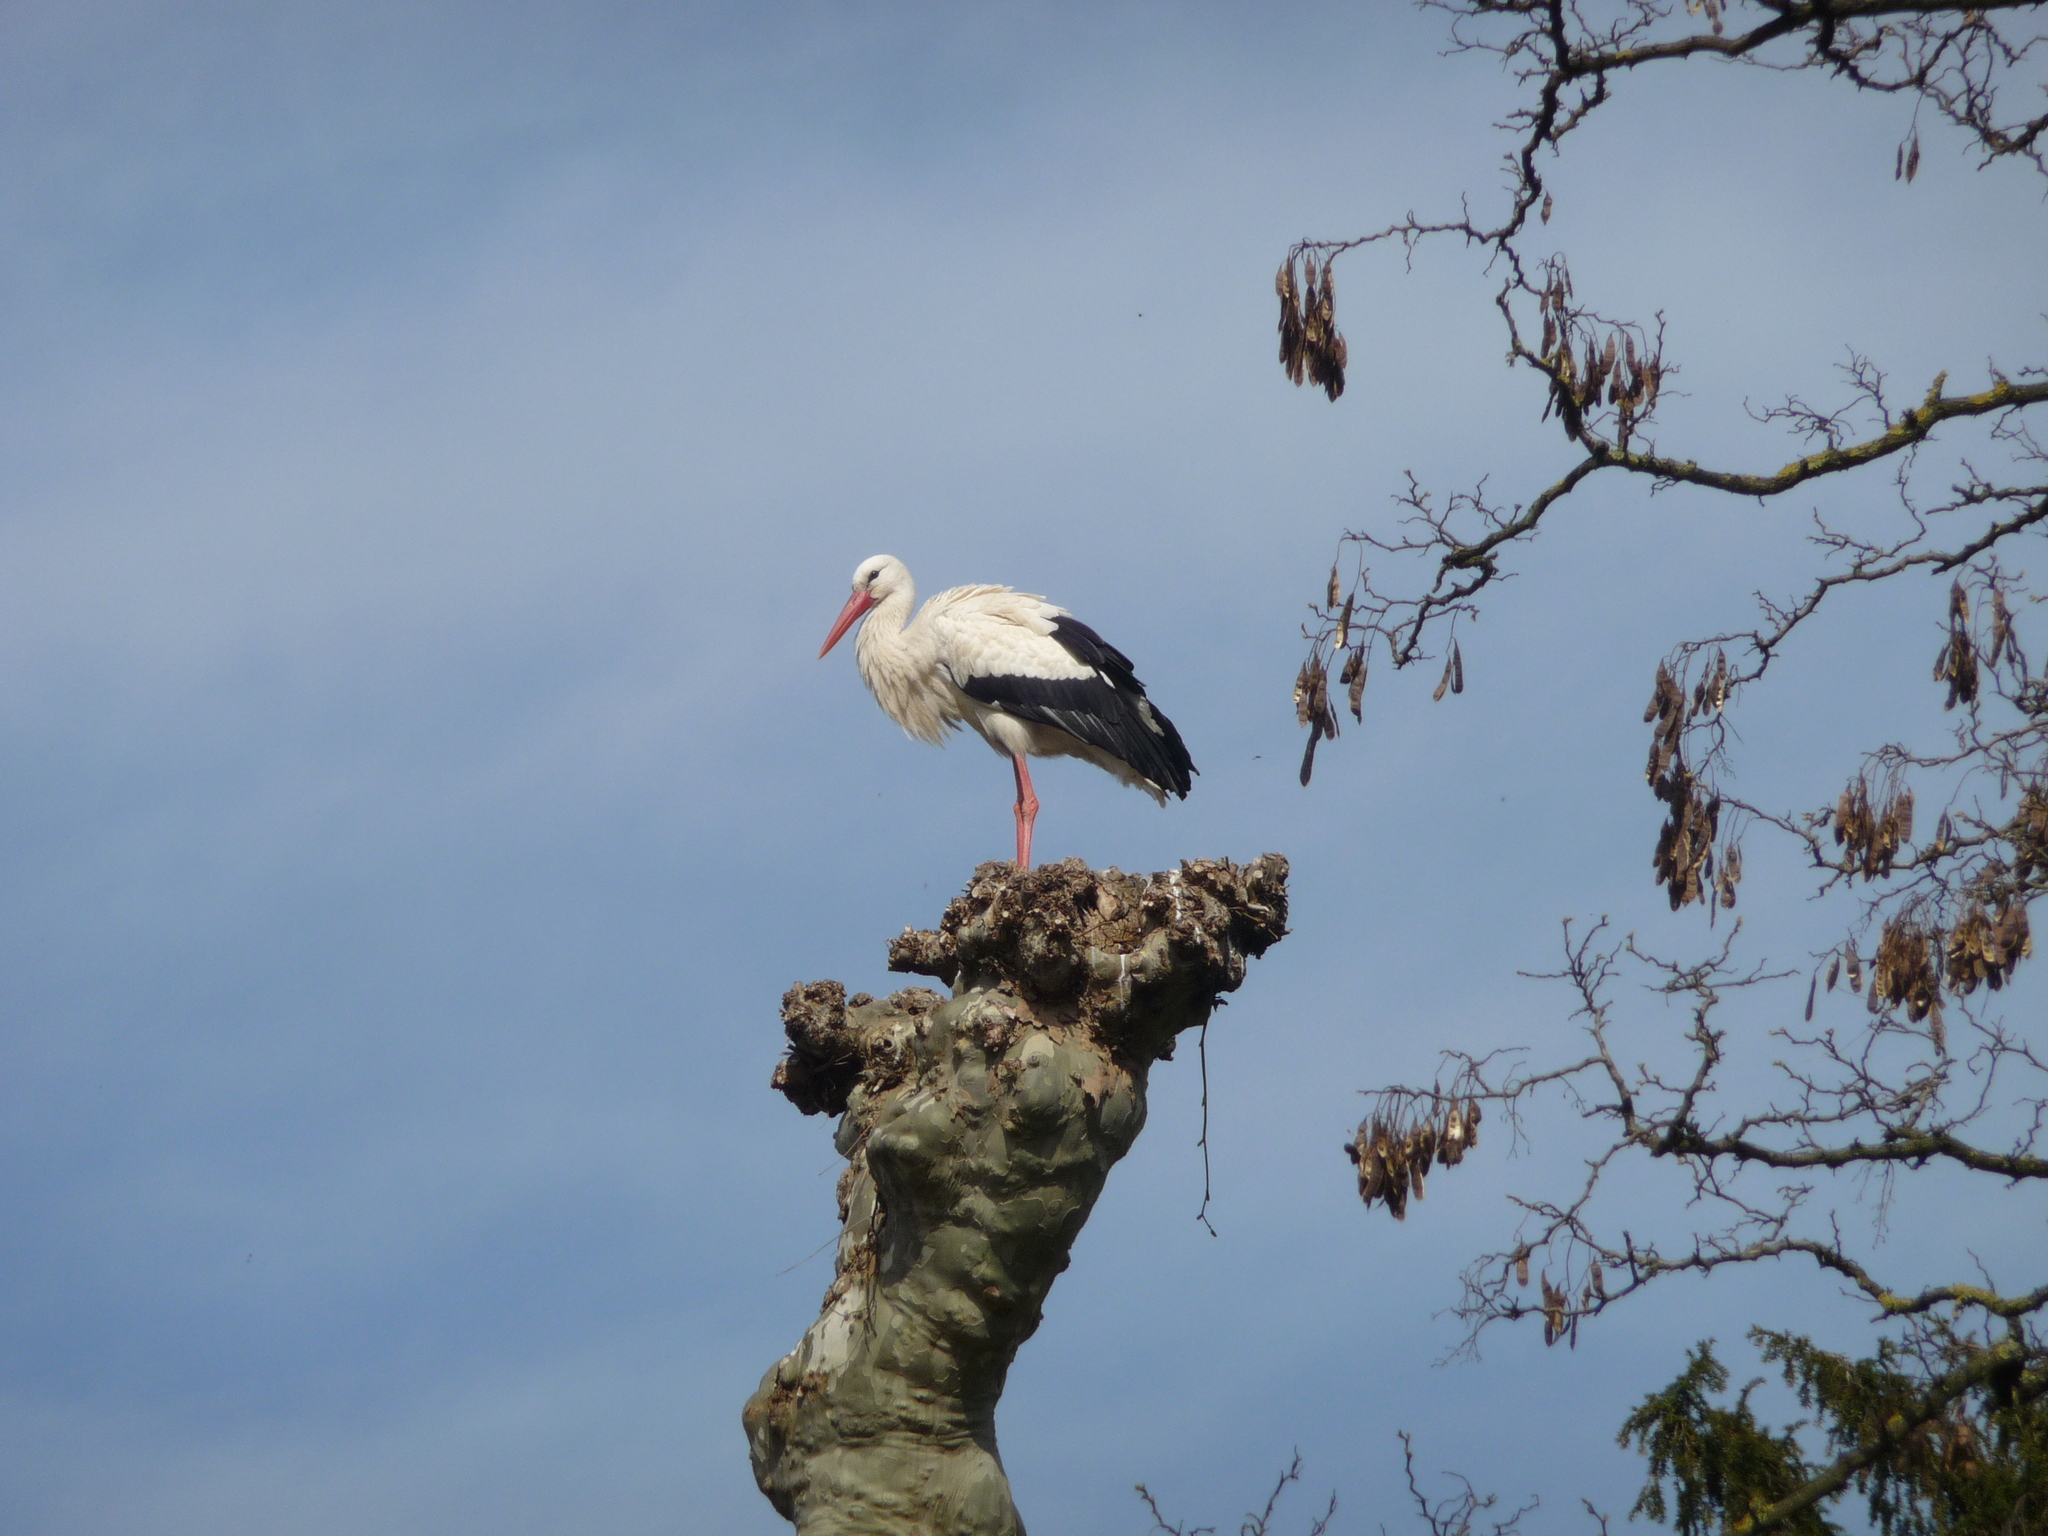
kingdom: Animalia
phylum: Chordata
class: Aves
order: Ciconiiformes
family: Ciconiidae
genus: Ciconia
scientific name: Ciconia ciconia
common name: White stork
